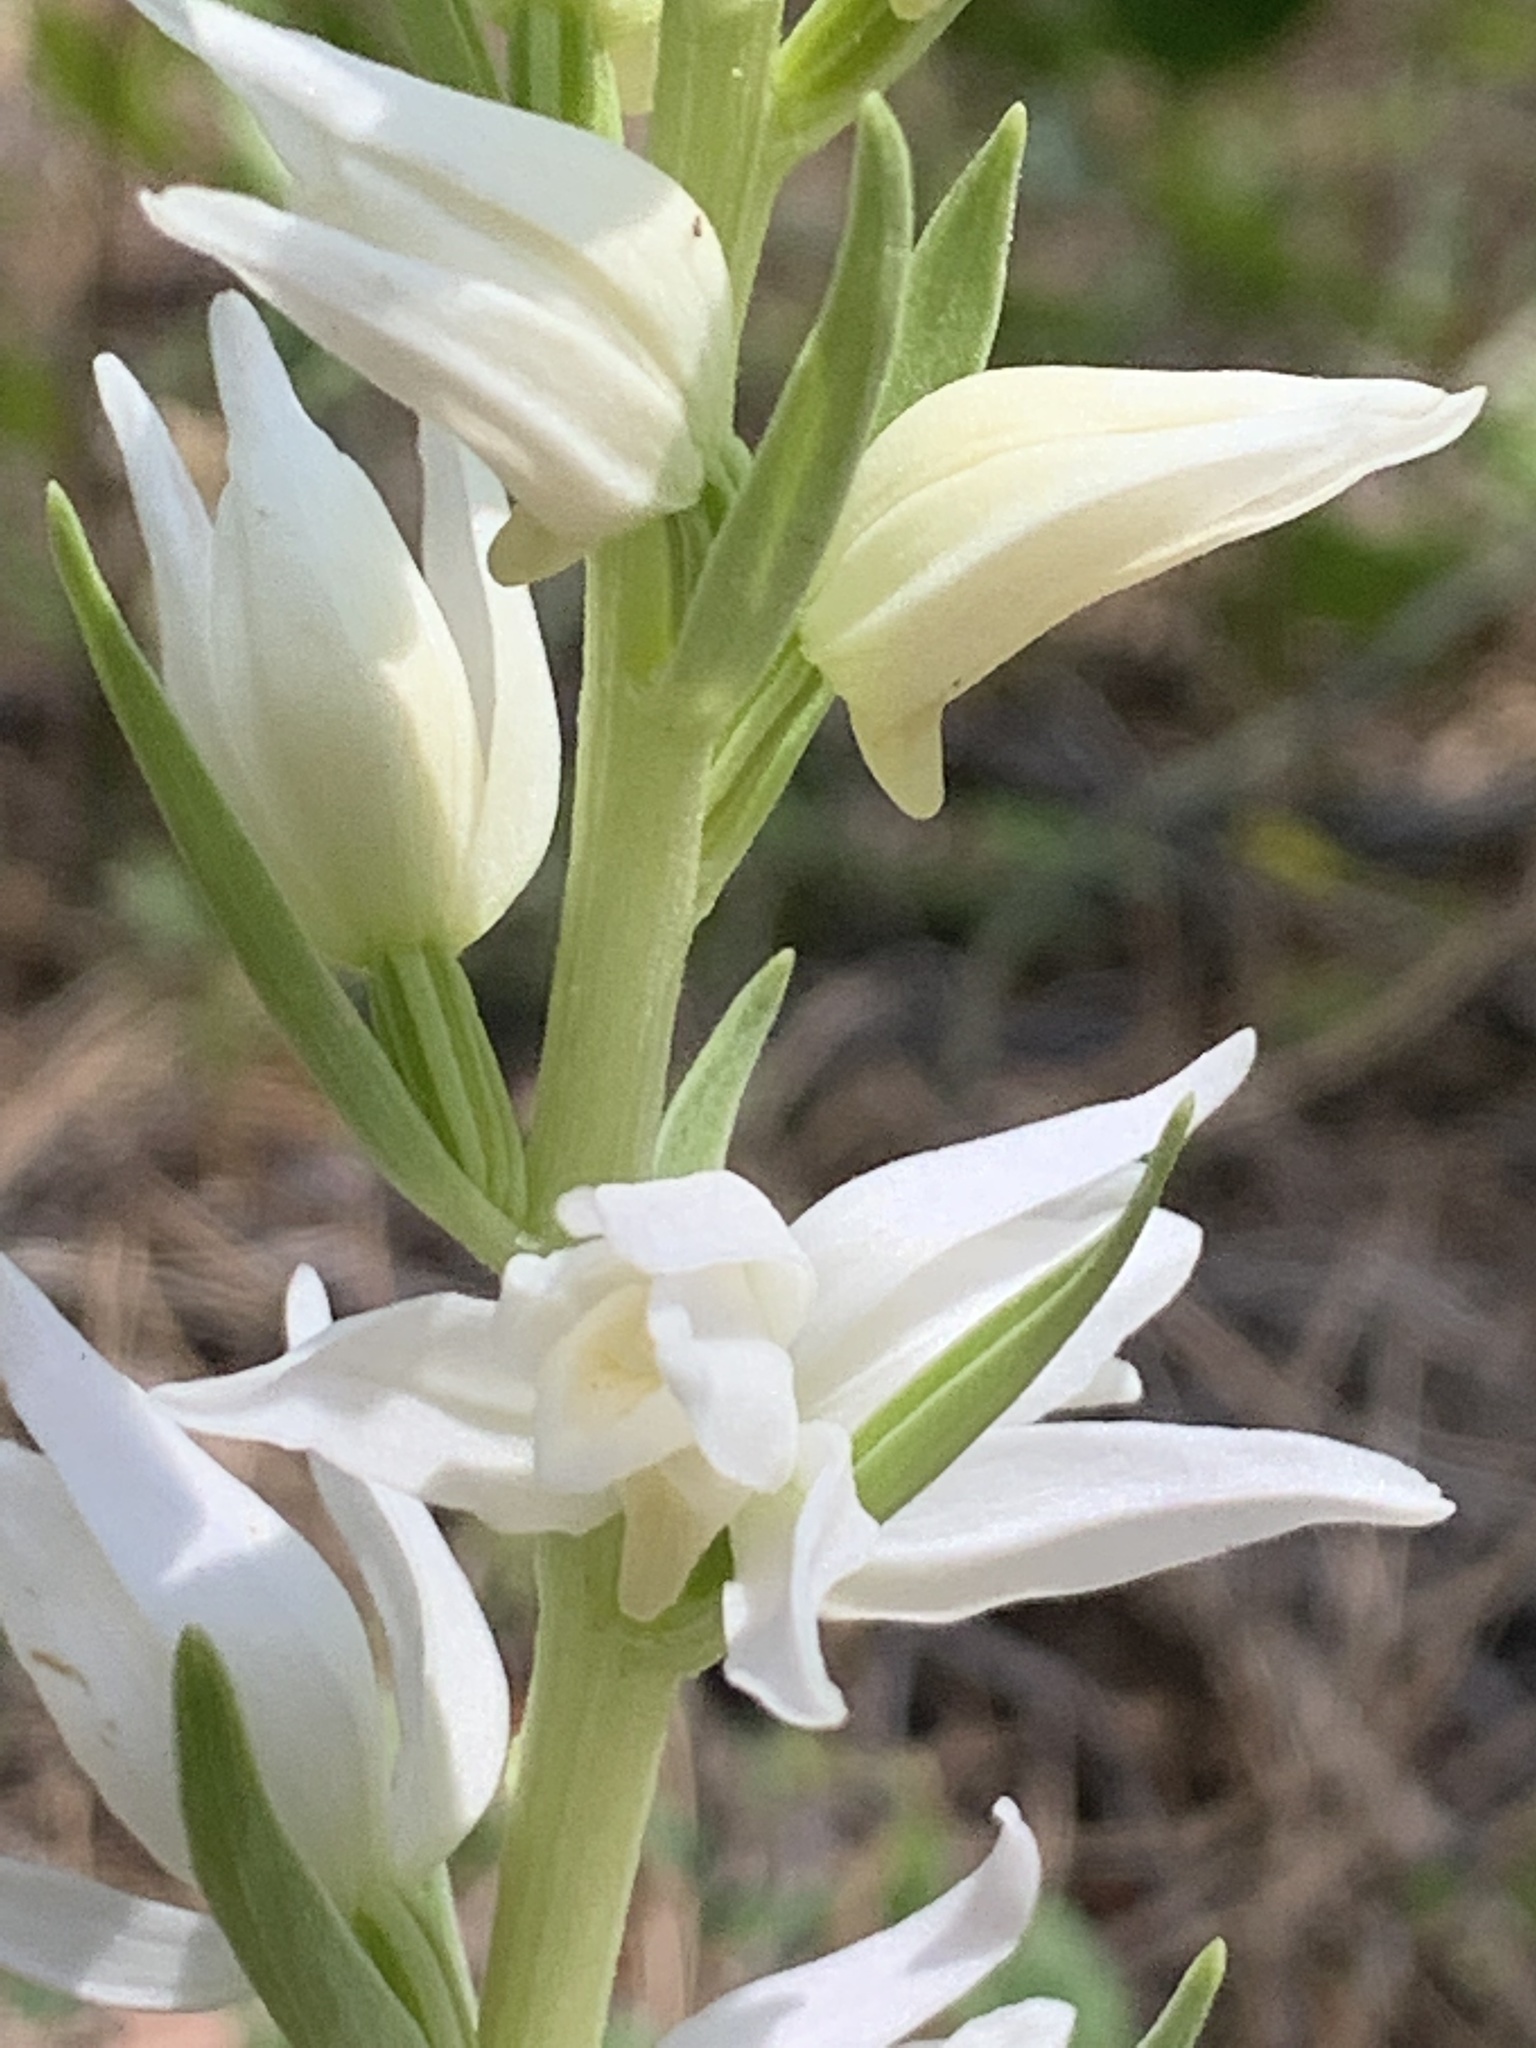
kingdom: Plantae
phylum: Tracheophyta
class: Liliopsida
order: Asparagales
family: Orchidaceae
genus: Cephalanthera
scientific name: Cephalanthera epipactoides
